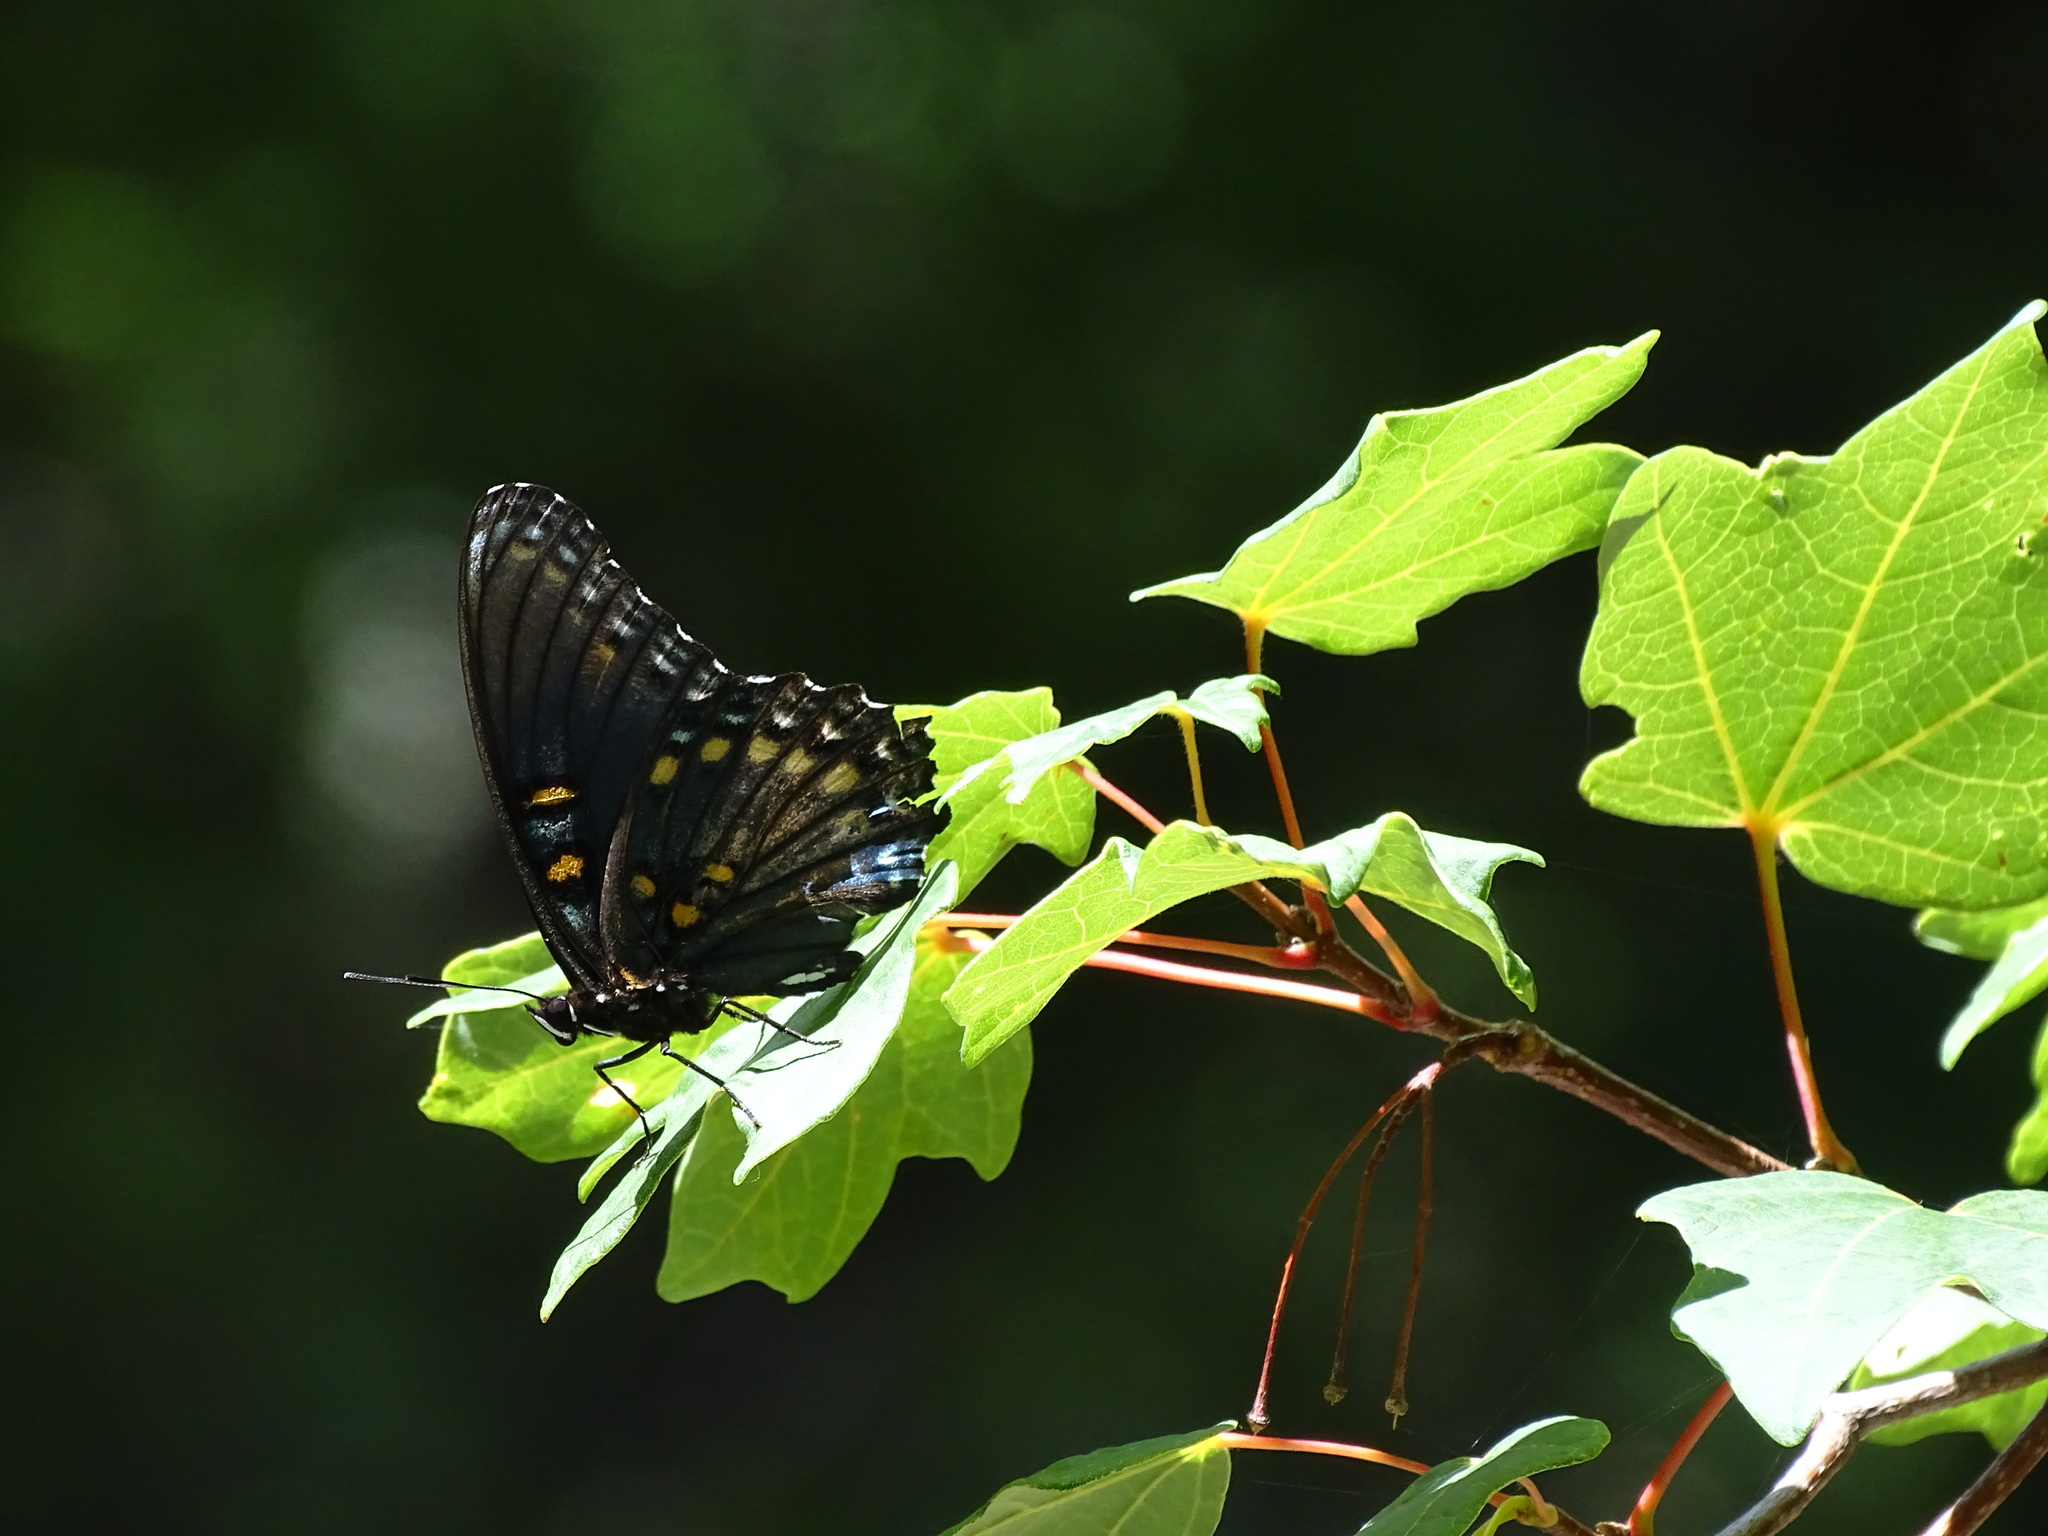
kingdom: Animalia
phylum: Arthropoda
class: Insecta
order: Lepidoptera
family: Nymphalidae
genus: Limenitis
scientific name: Limenitis arthemis
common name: Red-spotted admiral
